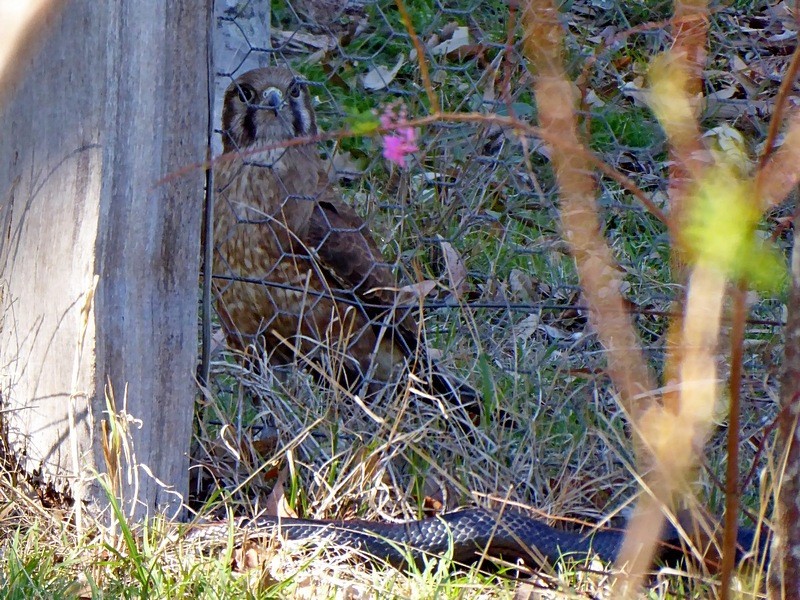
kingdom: Animalia
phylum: Chordata
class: Aves
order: Falconiformes
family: Falconidae
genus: Falco
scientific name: Falco berigora
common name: Brown falcon
